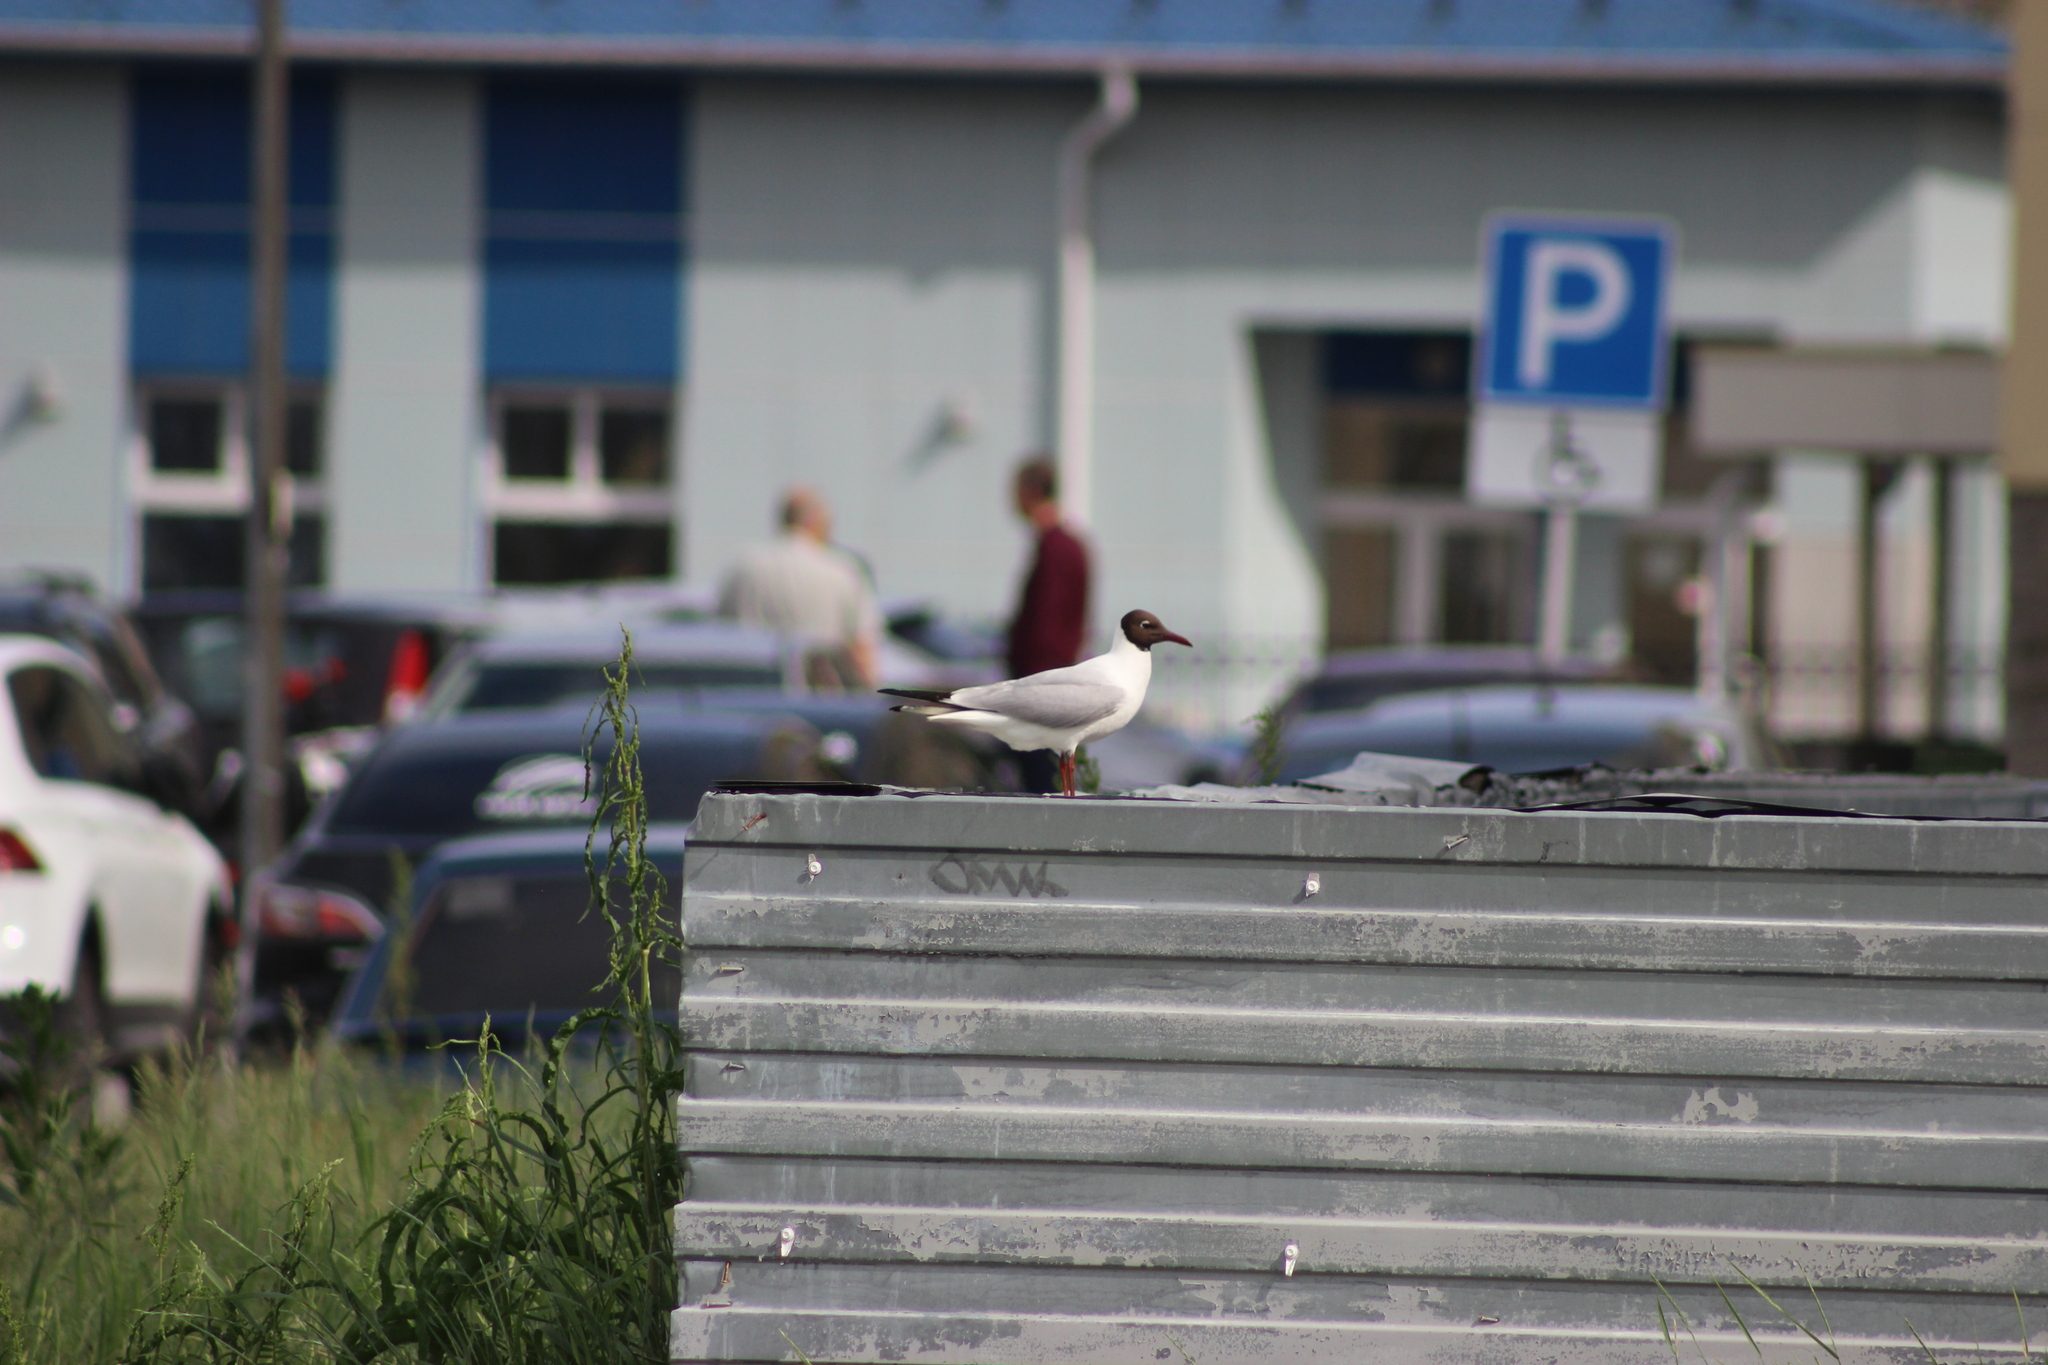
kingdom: Animalia
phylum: Chordata
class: Aves
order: Charadriiformes
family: Laridae
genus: Chroicocephalus
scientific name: Chroicocephalus ridibundus
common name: Black-headed gull
